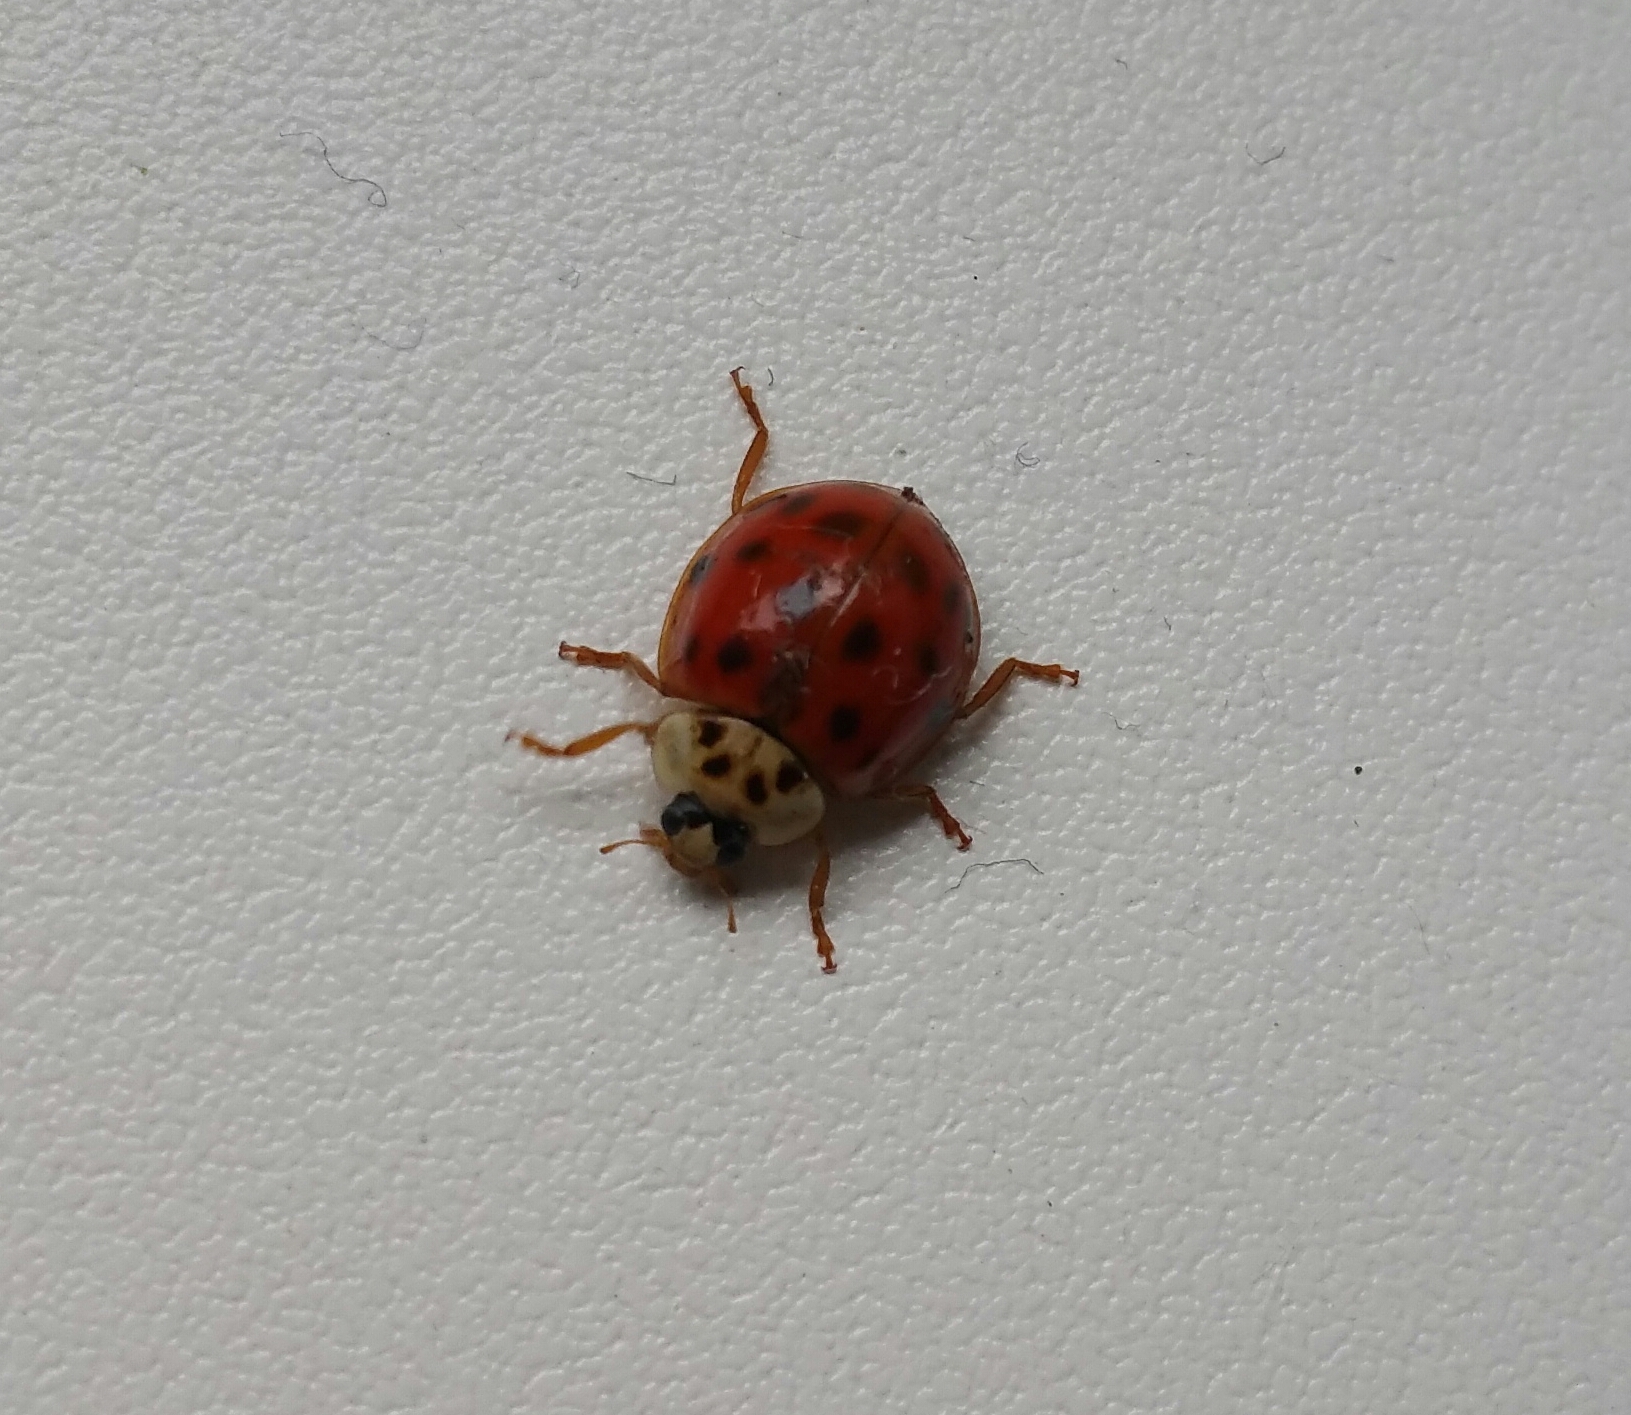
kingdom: Animalia
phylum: Arthropoda
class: Insecta
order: Coleoptera
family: Coccinellidae
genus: Harmonia
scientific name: Harmonia axyridis
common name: Harlequin ladybird
